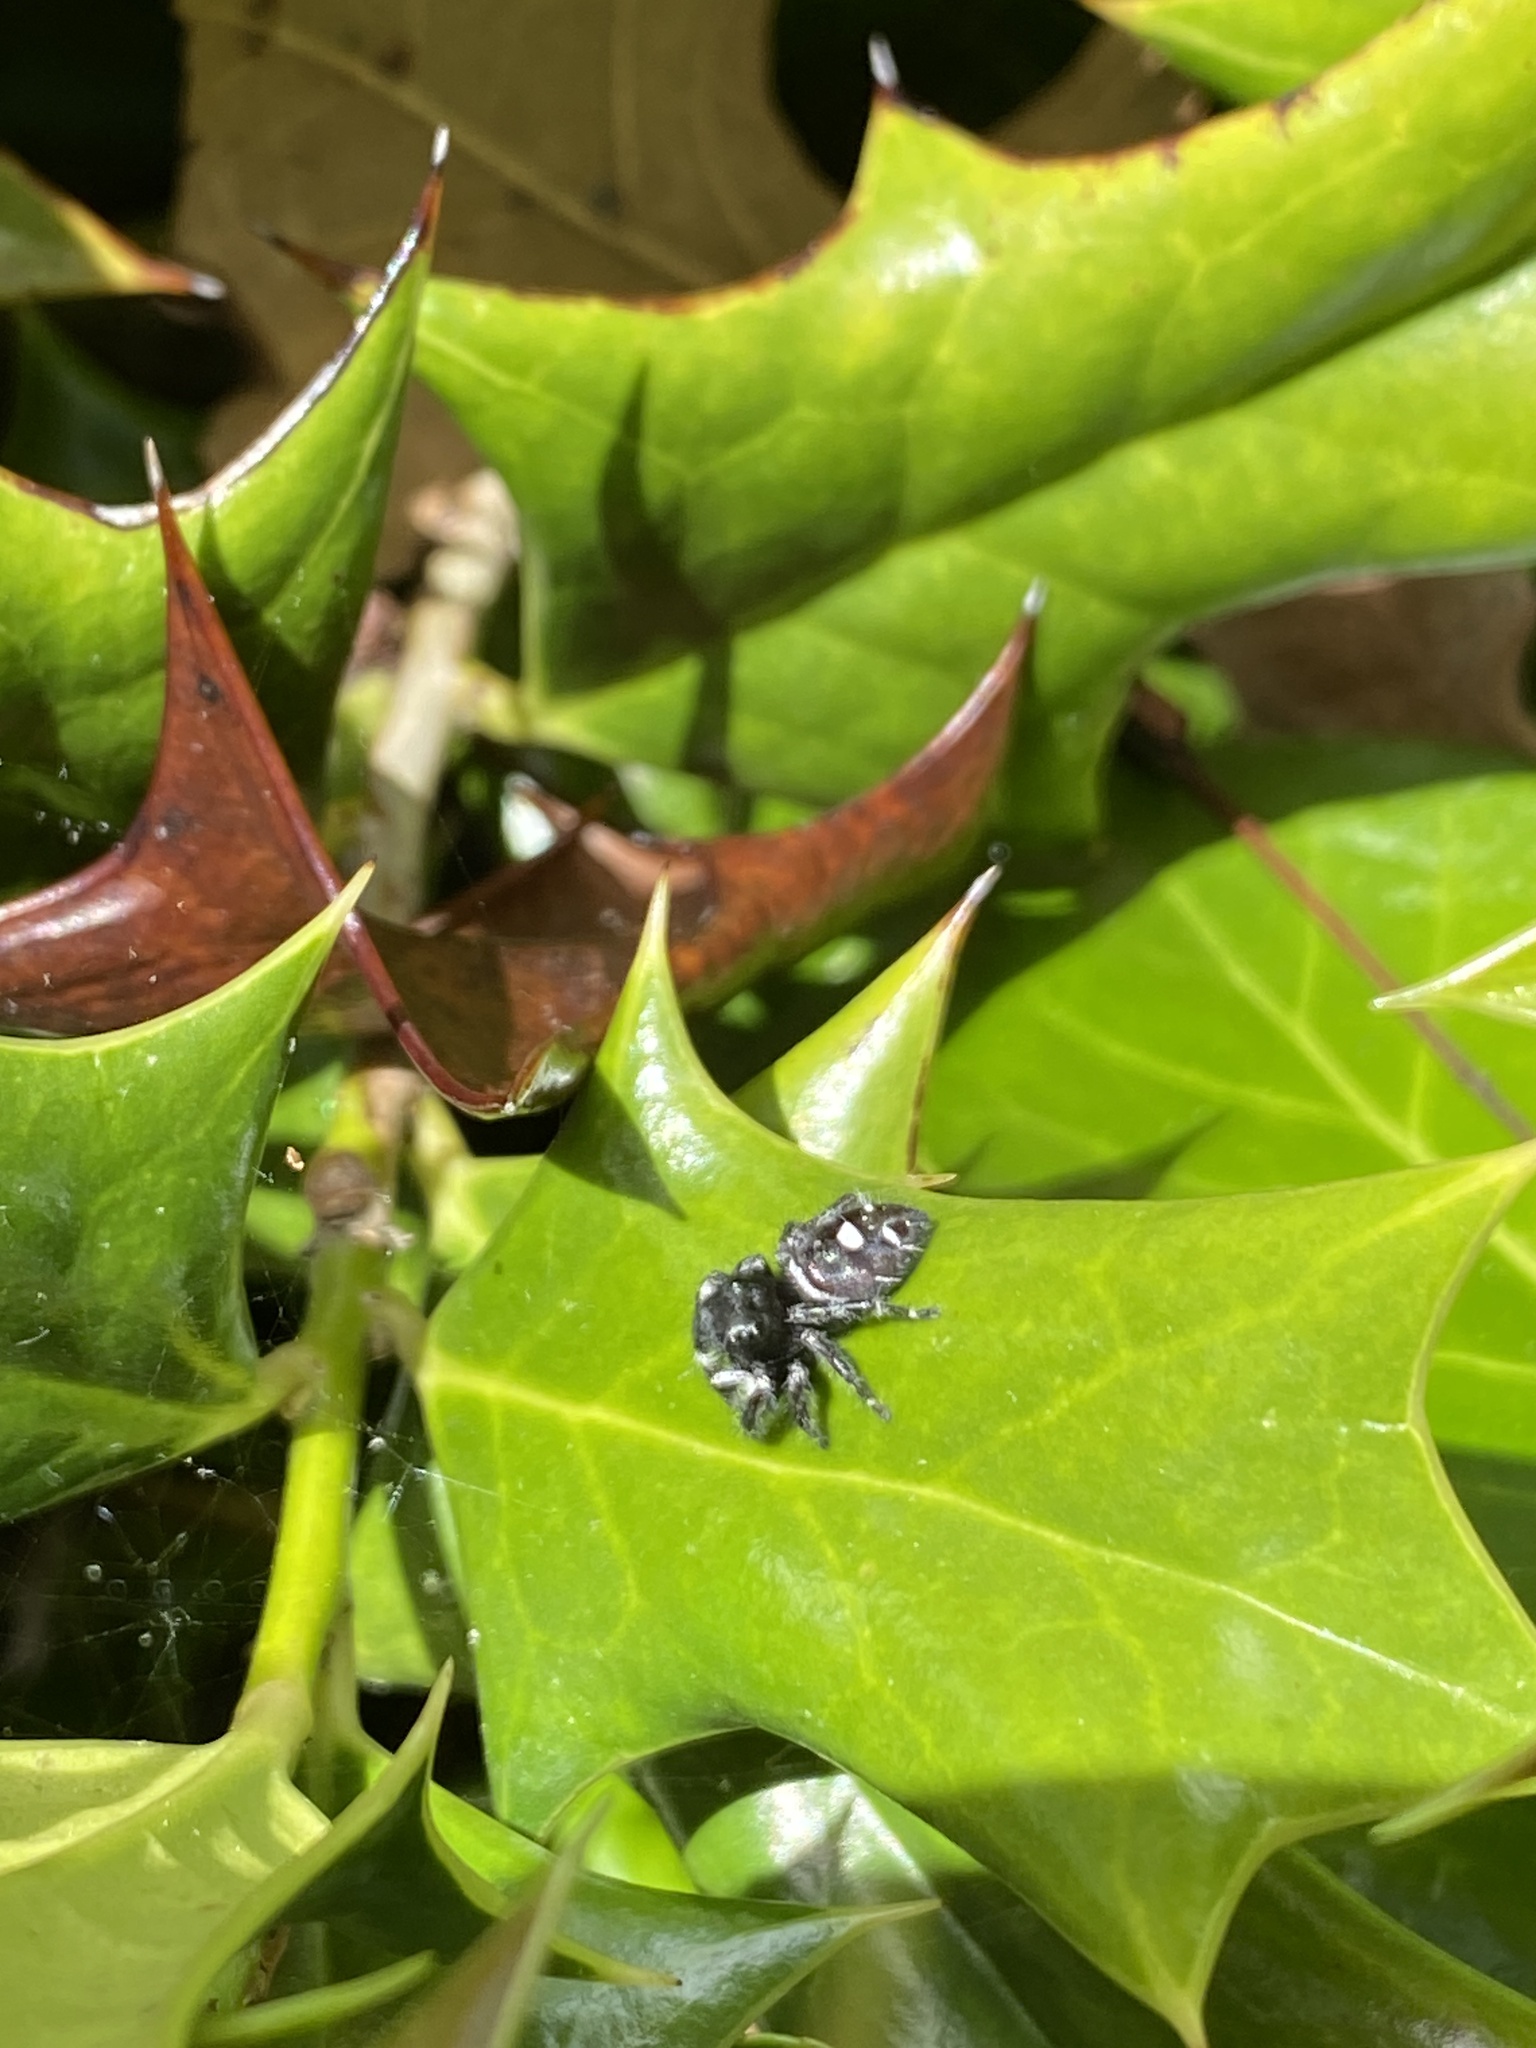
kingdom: Animalia
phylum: Arthropoda
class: Arachnida
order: Araneae
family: Salticidae
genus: Phidippus
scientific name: Phidippus audax
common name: Bold jumper
